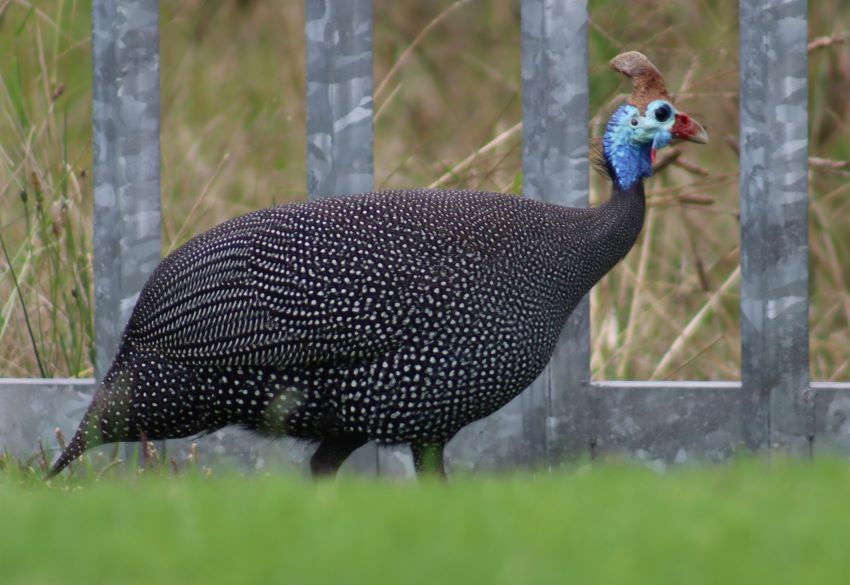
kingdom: Animalia
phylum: Chordata
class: Aves
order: Galliformes
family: Numididae
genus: Numida
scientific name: Numida meleagris
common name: Helmeted guineafowl
